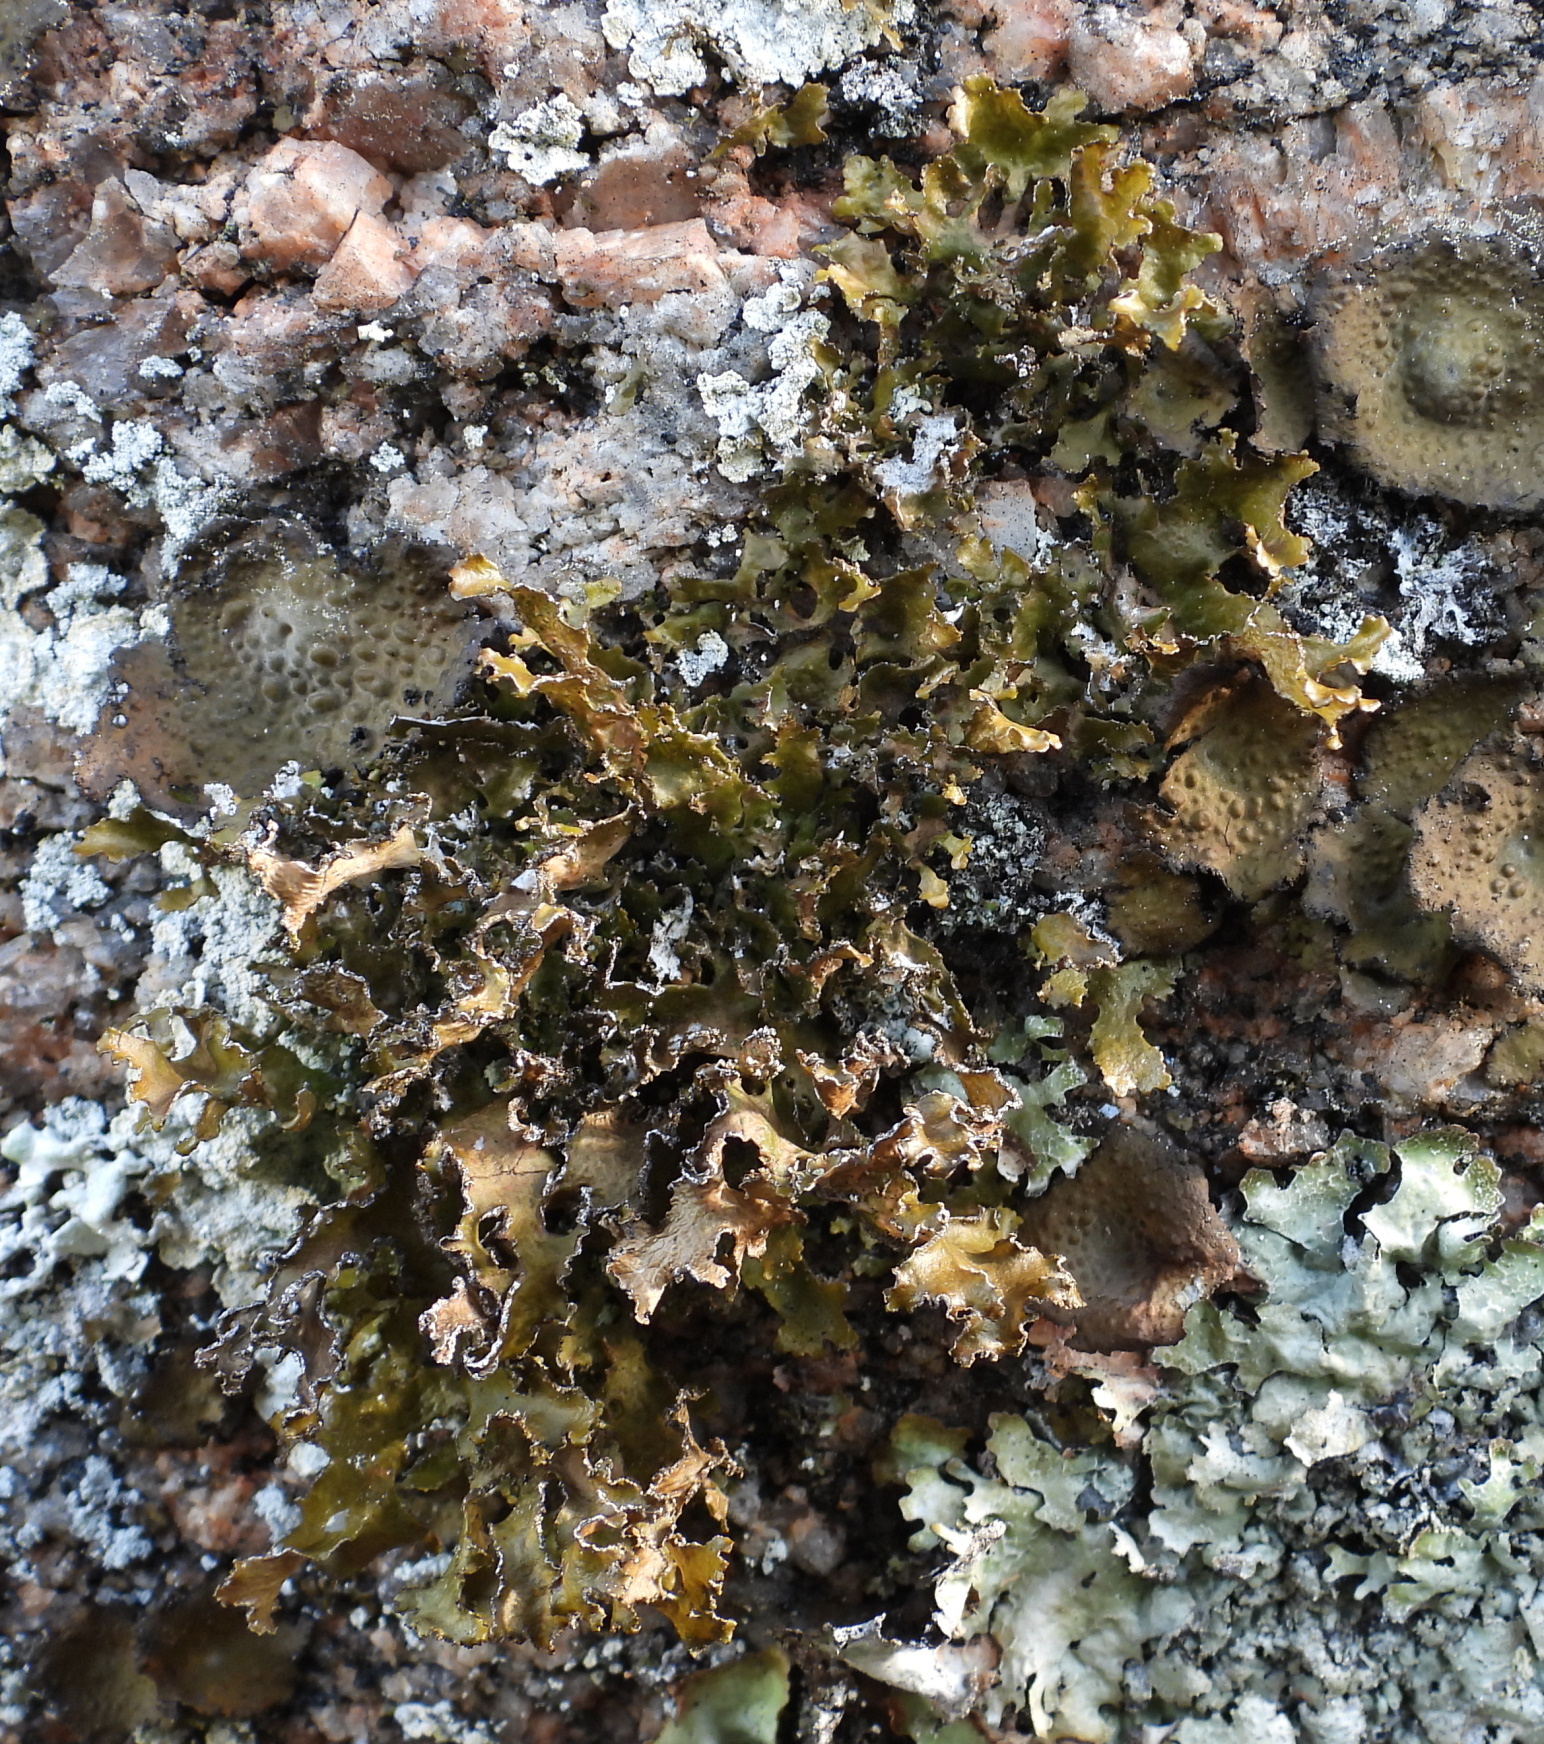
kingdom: Fungi
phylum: Ascomycota
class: Lecanoromycetes
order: Lecanorales
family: Parmeliaceae
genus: Nephromopsis
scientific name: Nephromopsis chlorophylla
